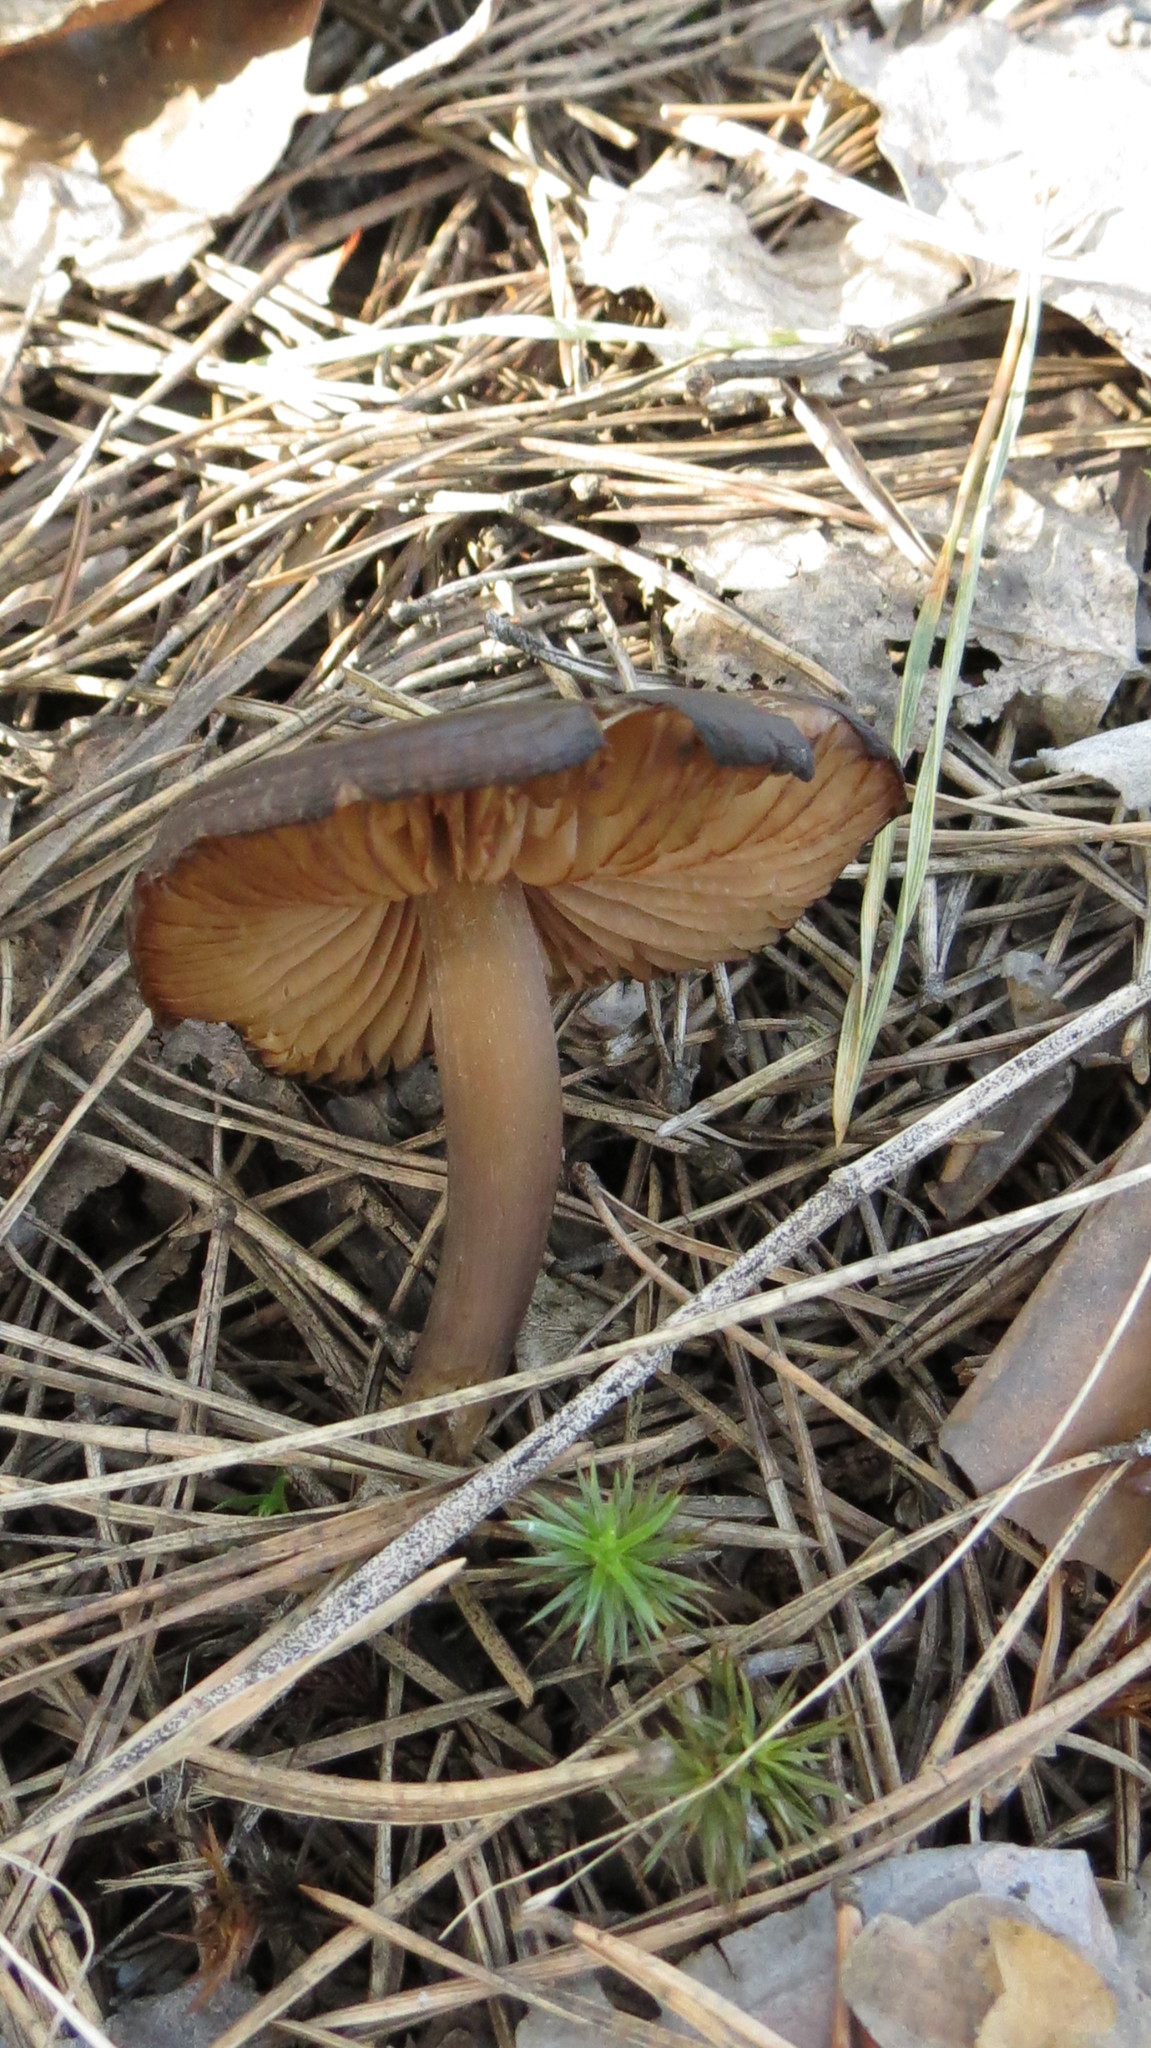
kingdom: Fungi
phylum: Basidiomycota
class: Agaricomycetes
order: Agaricales
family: Entolomataceae
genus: Entoloma
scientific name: Entoloma vernum
